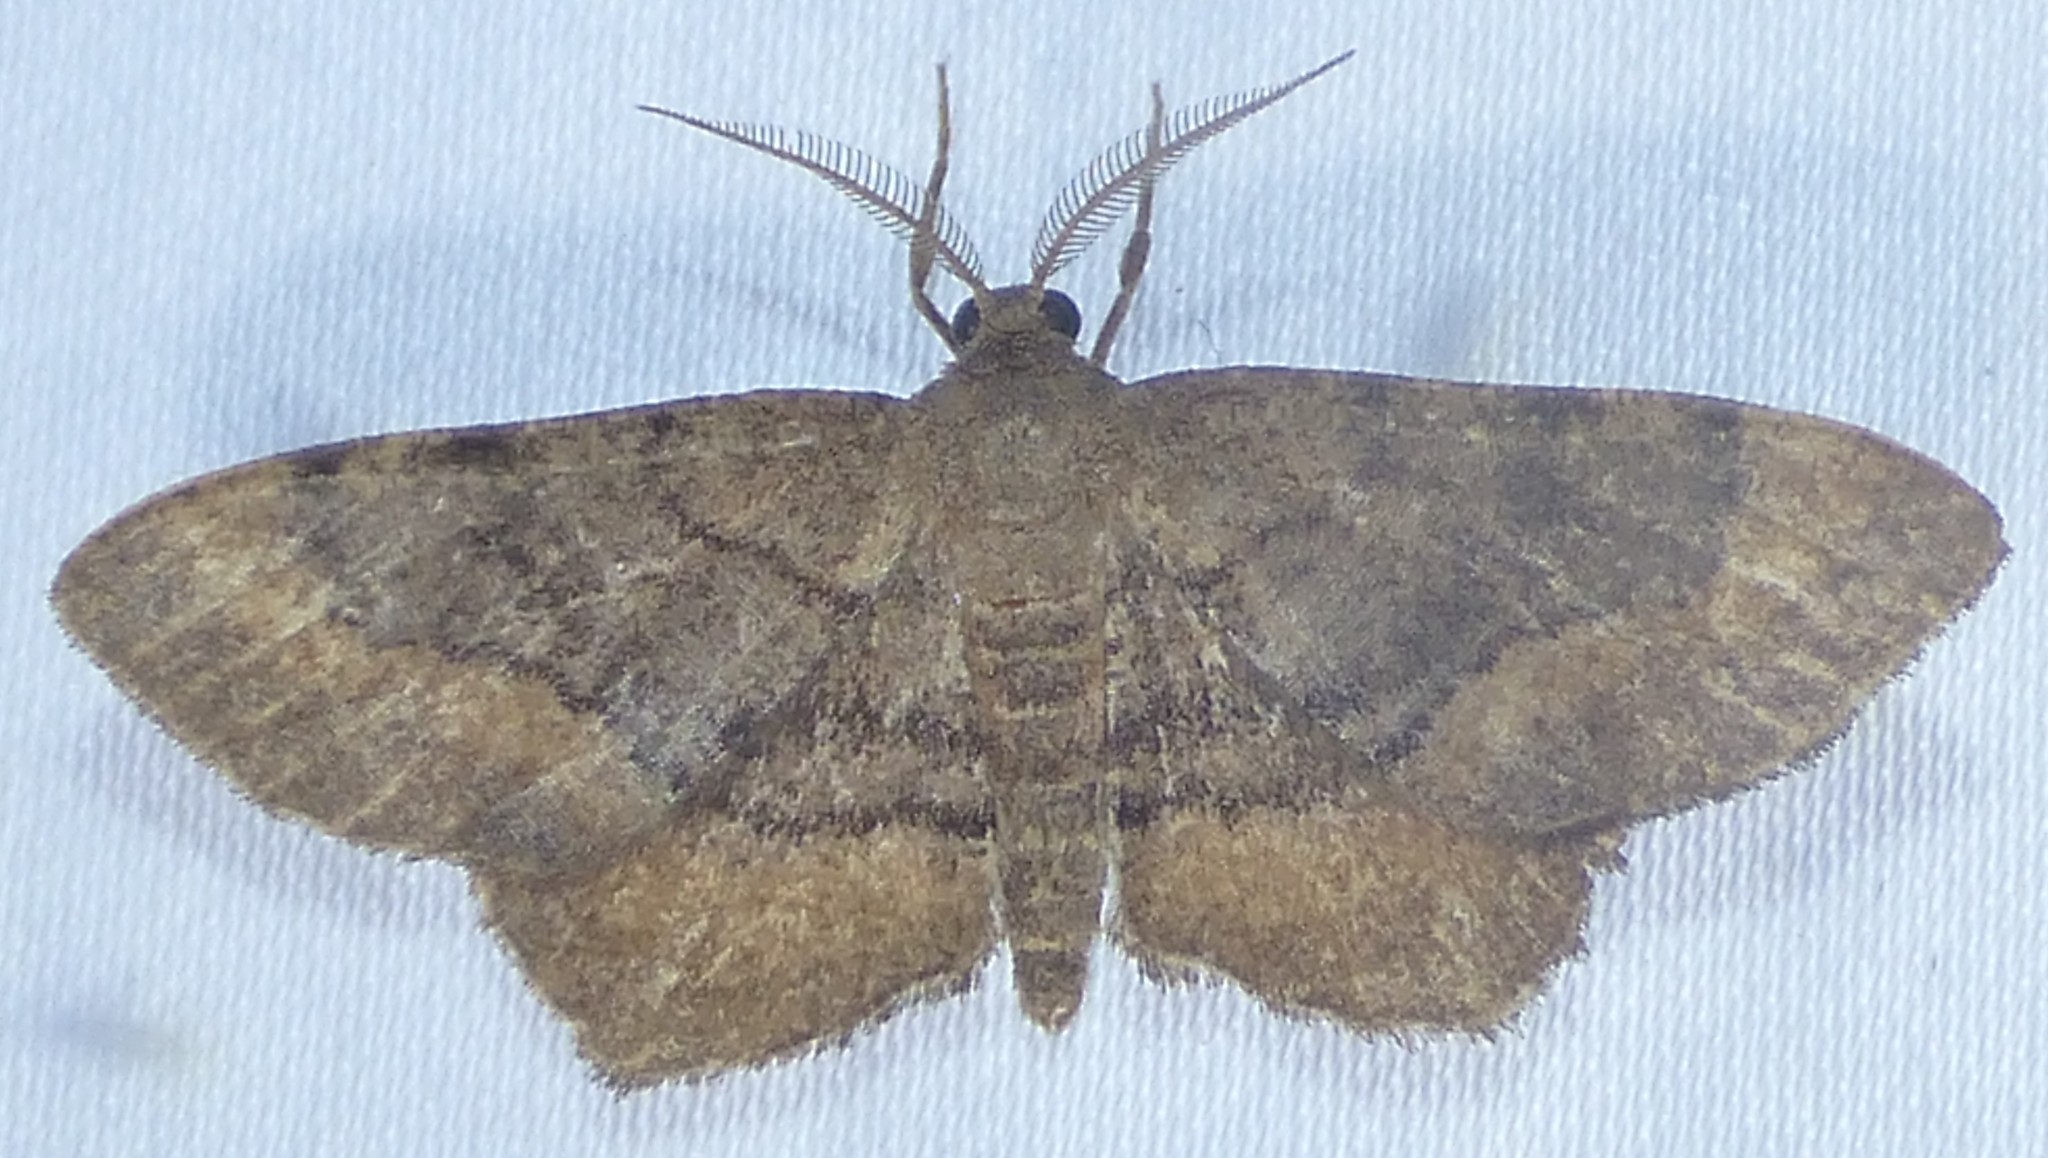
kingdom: Animalia
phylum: Arthropoda
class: Insecta
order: Lepidoptera
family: Geometridae
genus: Hypagyrtis
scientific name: Hypagyrtis esther
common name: Esther moth
